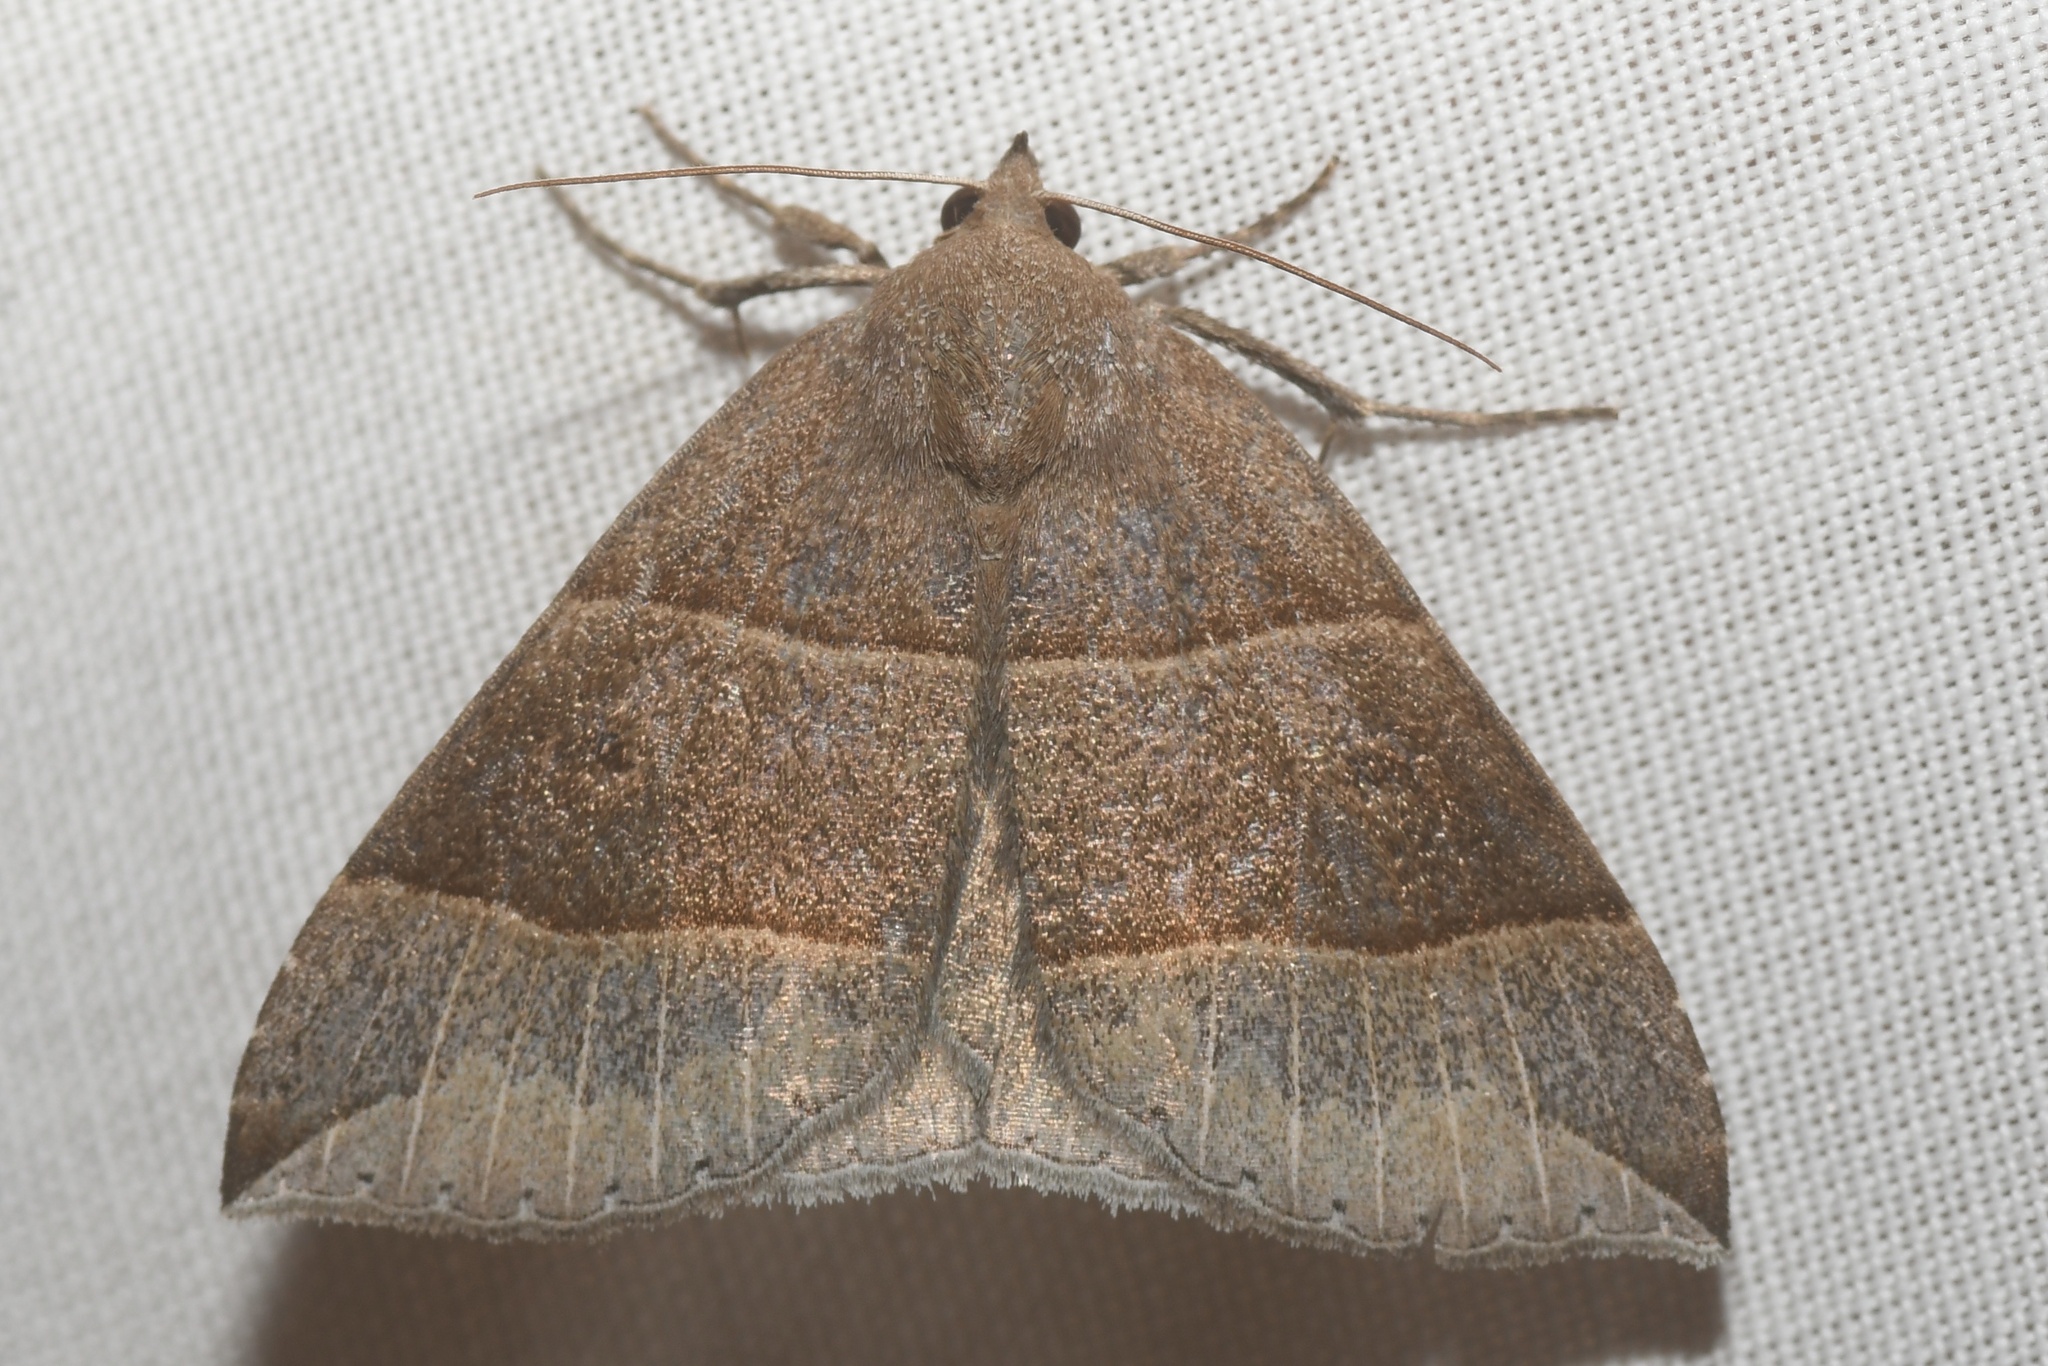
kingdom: Animalia
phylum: Arthropoda
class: Insecta
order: Lepidoptera
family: Erebidae
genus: Parallelia
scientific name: Parallelia bistriaris
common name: Maple looper moth
